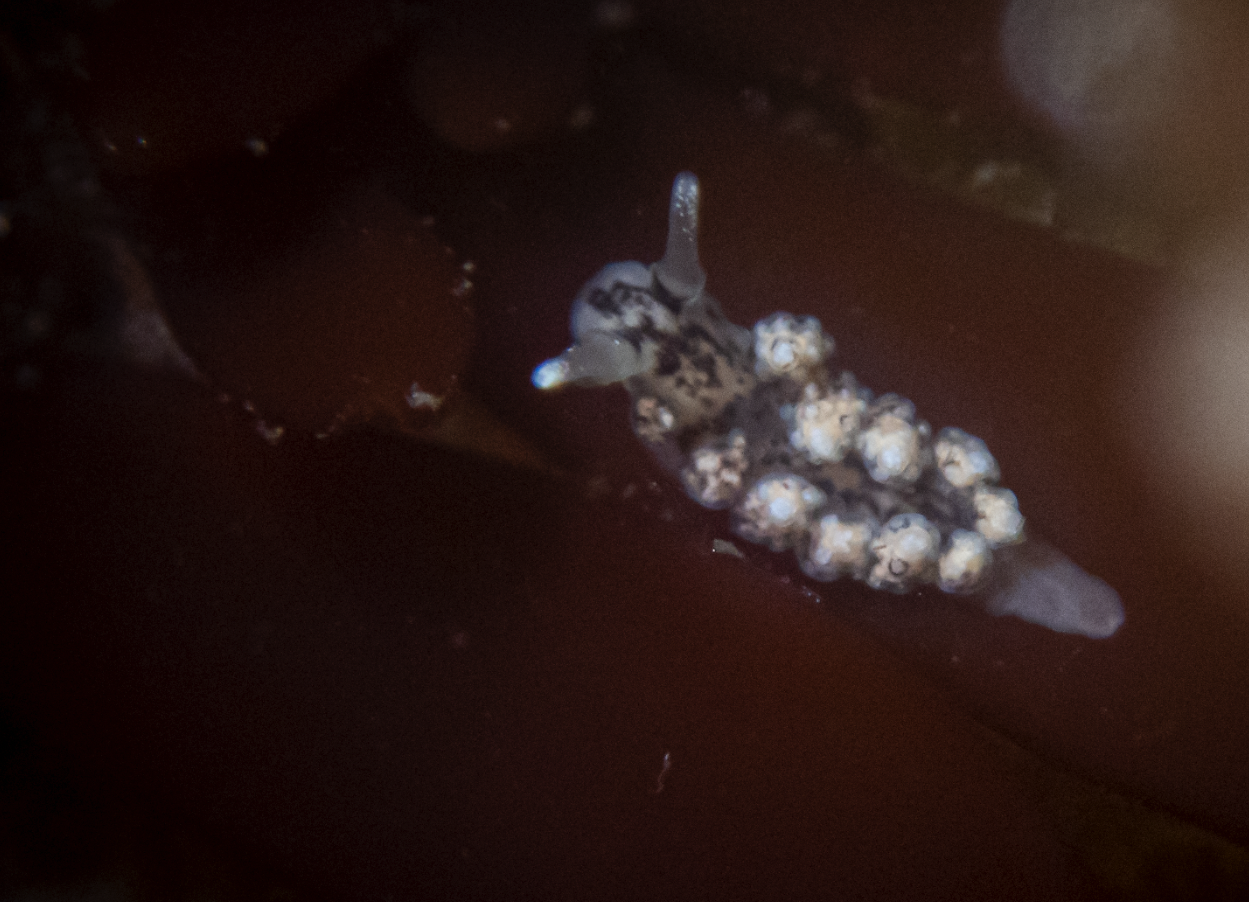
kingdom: Animalia
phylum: Mollusca
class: Gastropoda
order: Nudibranchia
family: Dotidae
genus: Doto
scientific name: Doto kya
